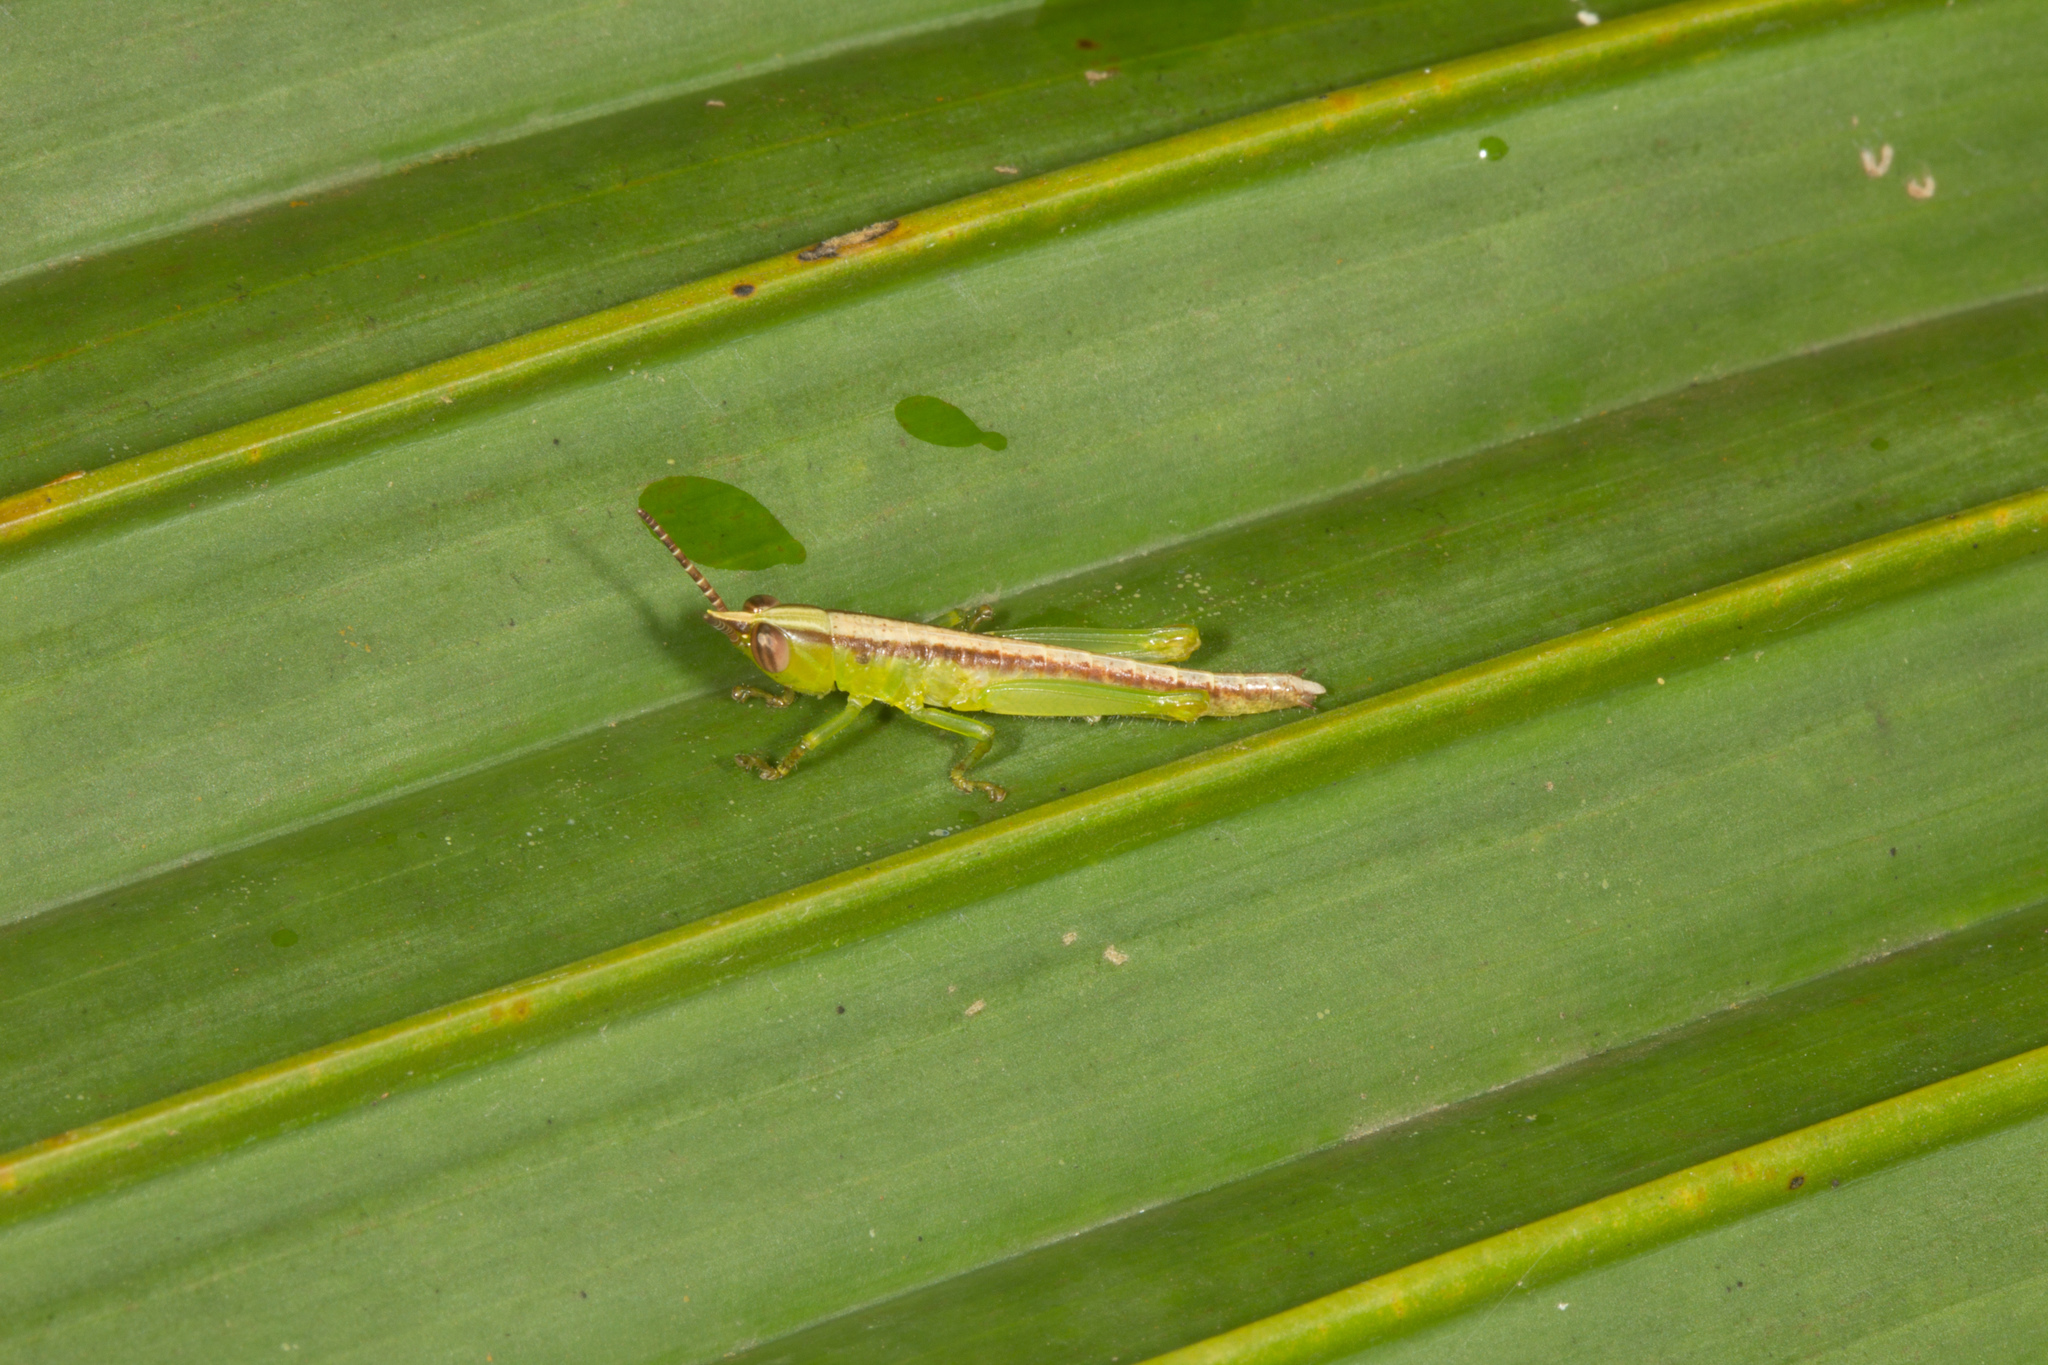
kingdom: Animalia
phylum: Arthropoda
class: Insecta
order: Orthoptera
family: Acrididae
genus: Enoplotettix
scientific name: Enoplotettix gardineri
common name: Seychelles palm grasshopper
